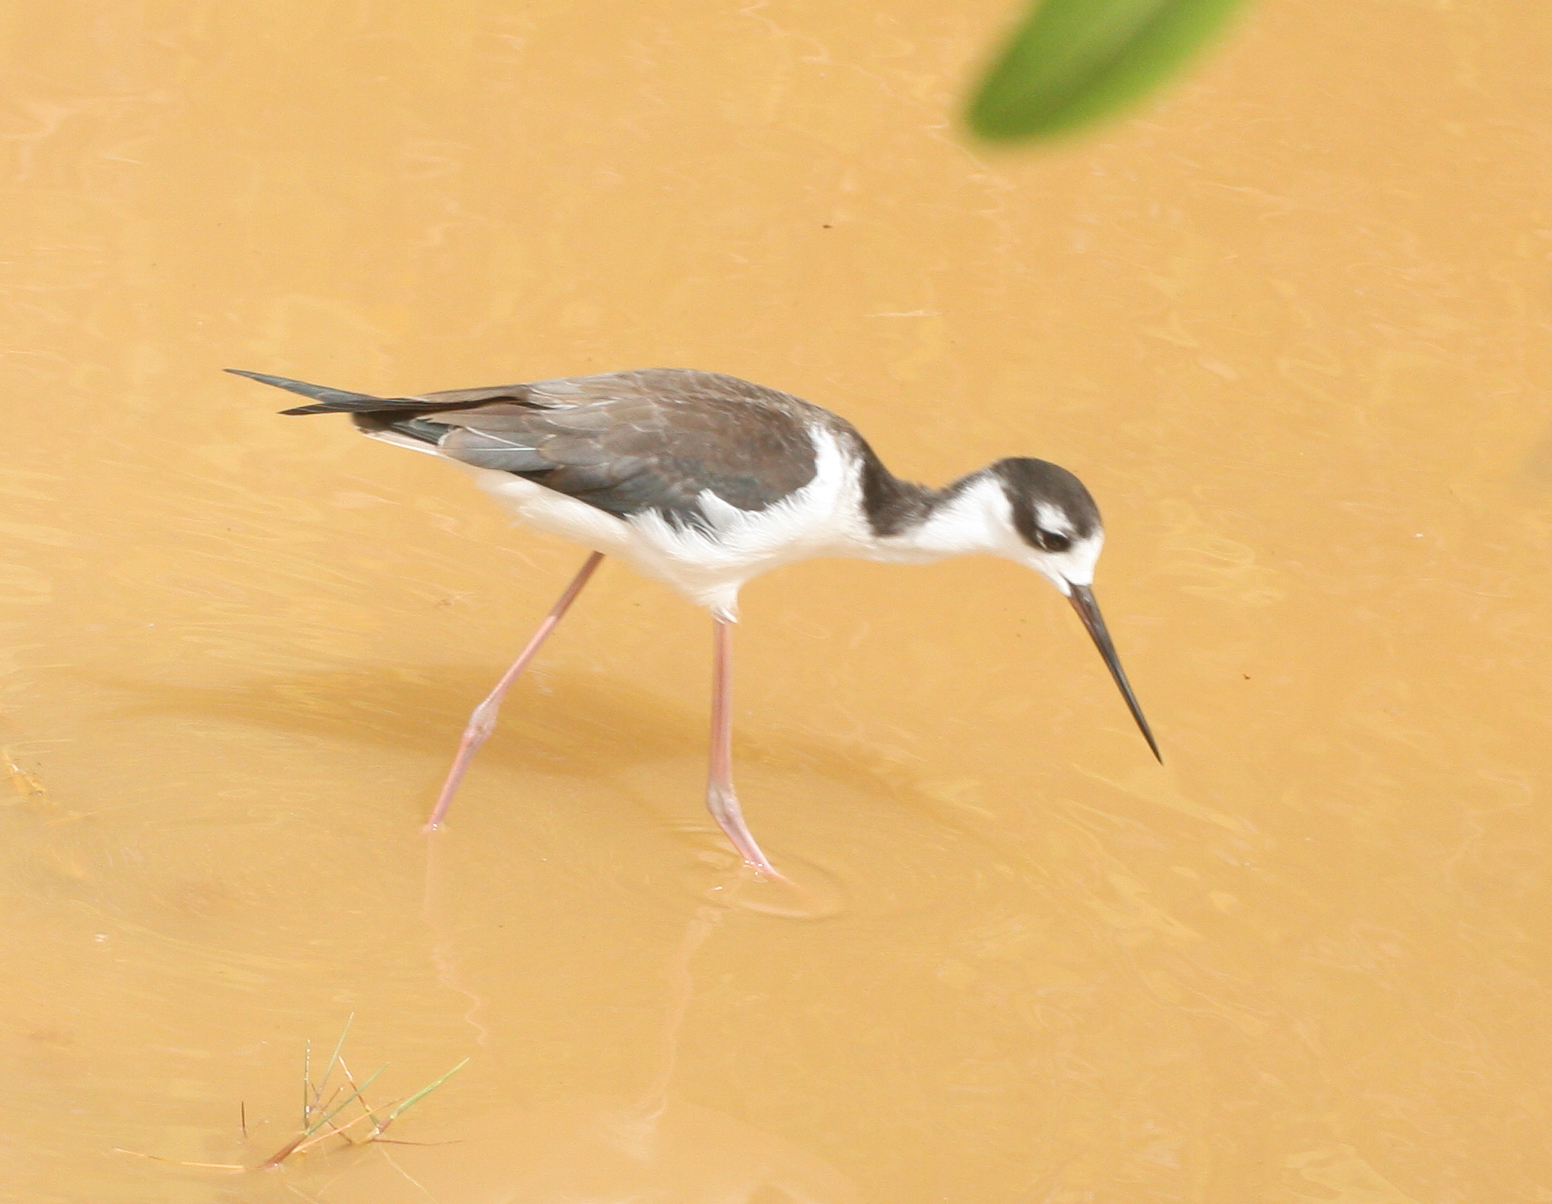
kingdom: Animalia
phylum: Chordata
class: Aves
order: Charadriiformes
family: Recurvirostridae
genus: Himantopus
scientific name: Himantopus mexicanus
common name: Black-necked stilt
